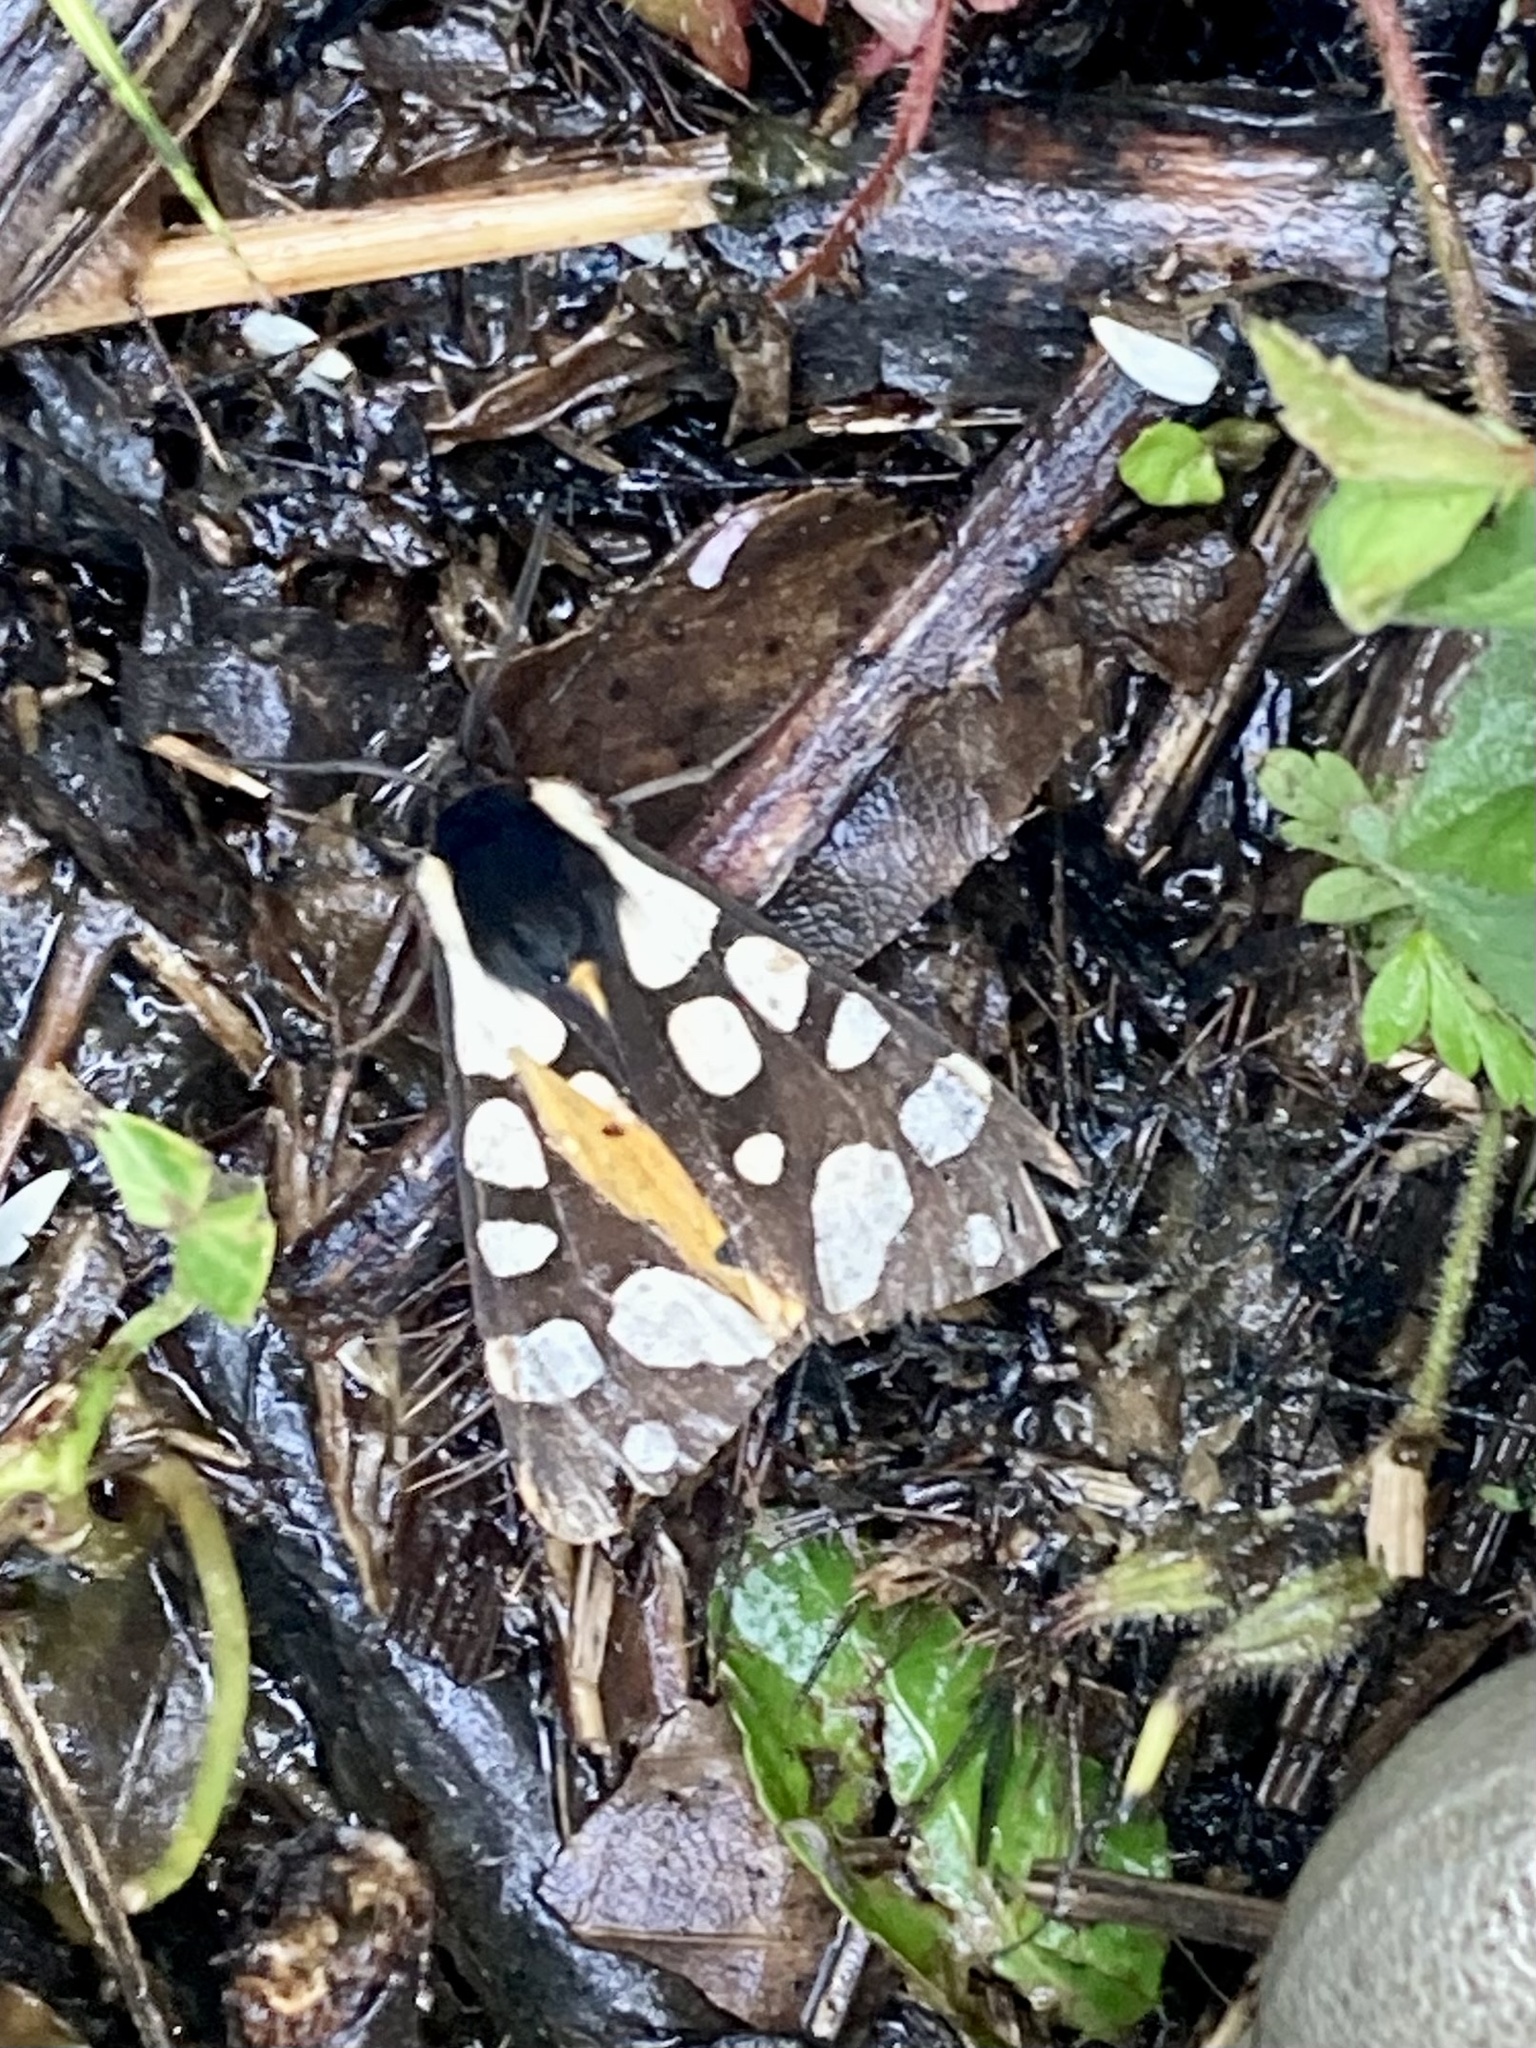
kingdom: Animalia
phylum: Arthropoda
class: Insecta
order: Lepidoptera
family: Erebidae
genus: Epicallia
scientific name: Epicallia villica
